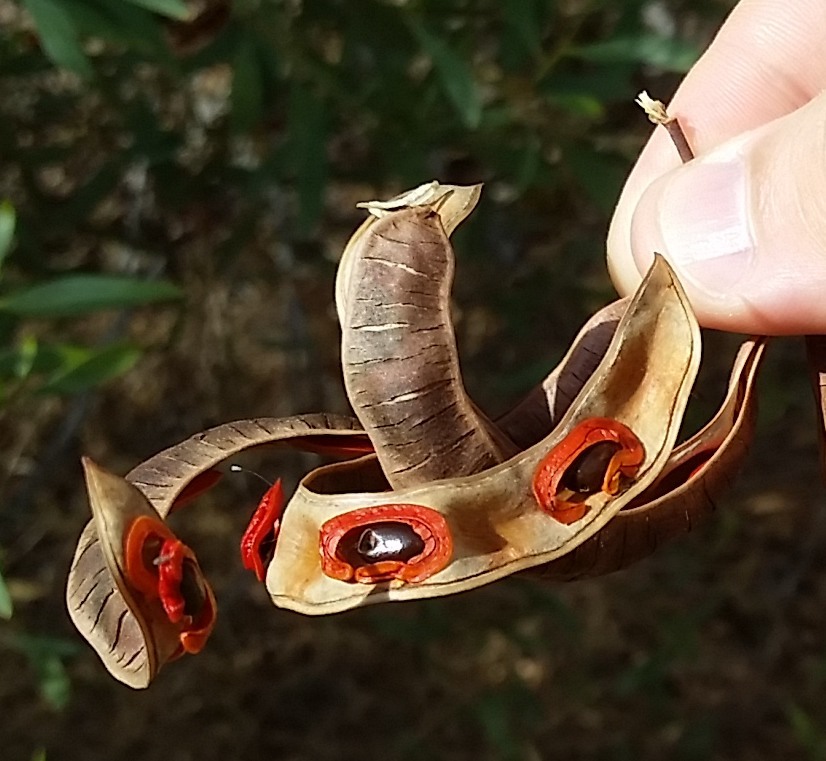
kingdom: Plantae
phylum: Tracheophyta
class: Magnoliopsida
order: Fabales
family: Fabaceae
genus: Acacia
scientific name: Acacia cyclops
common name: Coastal wattle
